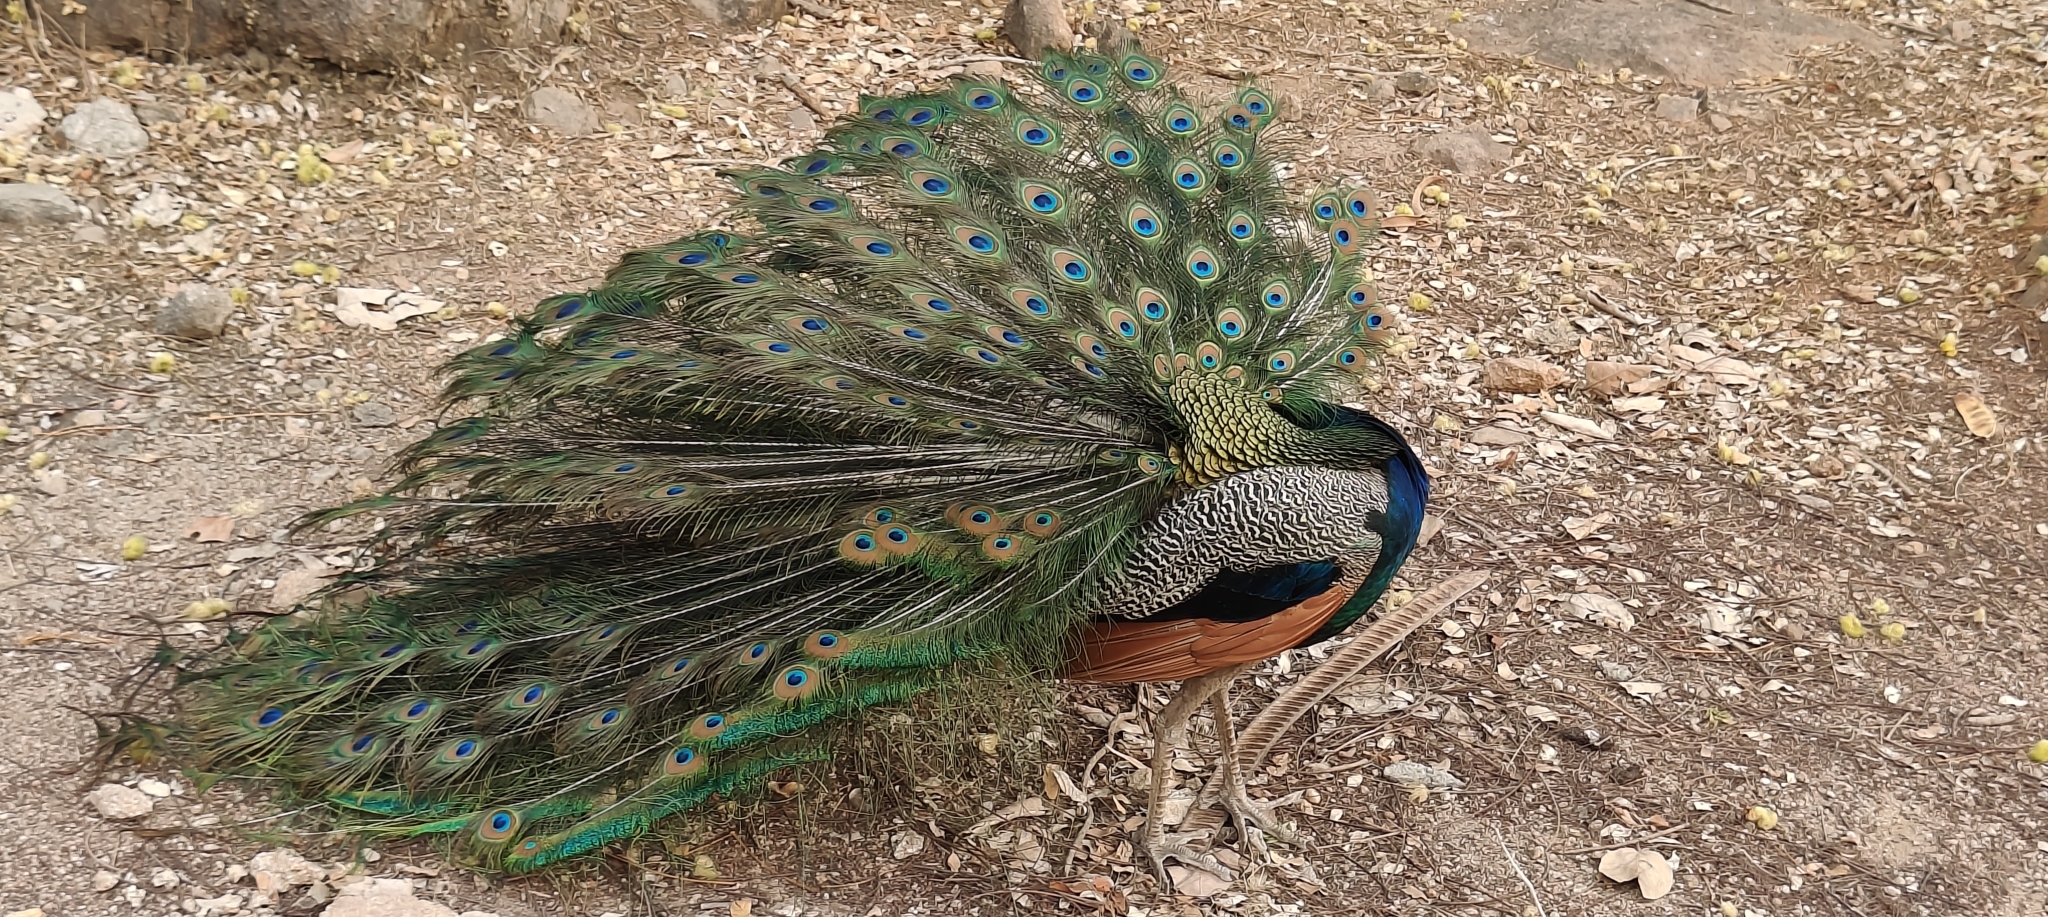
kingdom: Animalia
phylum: Chordata
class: Aves
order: Galliformes
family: Phasianidae
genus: Pavo
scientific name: Pavo cristatus
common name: Indian peafowl
